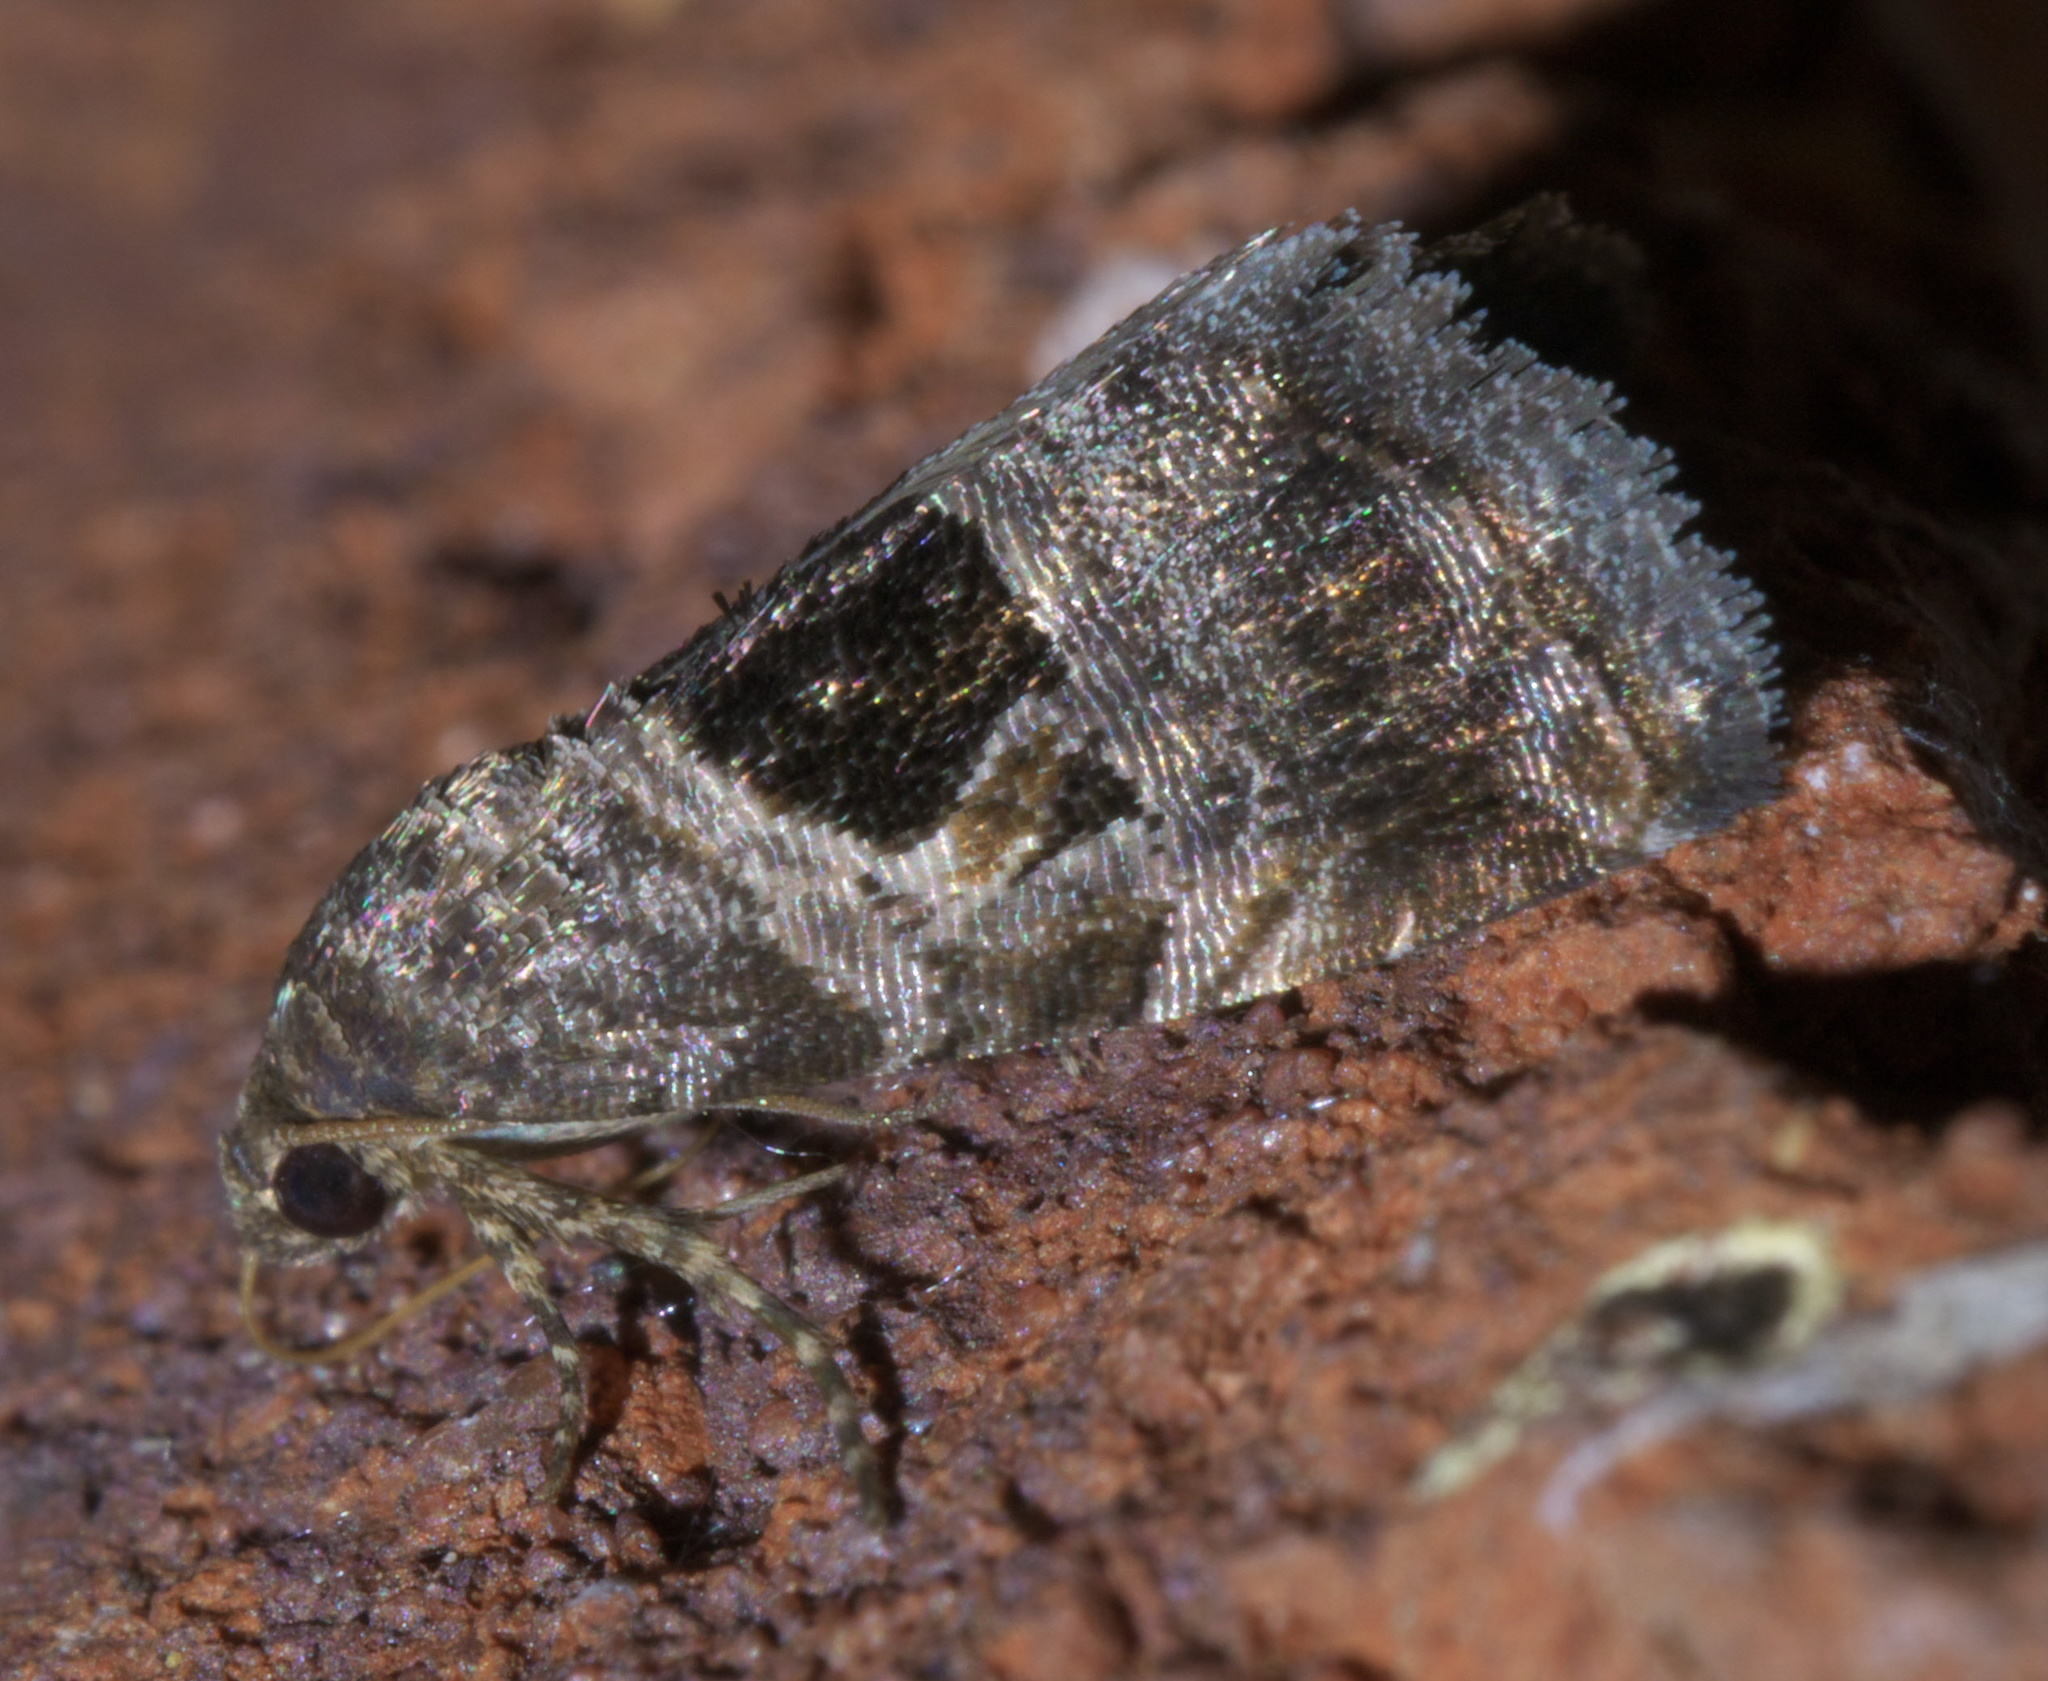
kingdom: Animalia
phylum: Arthropoda
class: Insecta
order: Lepidoptera
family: Noctuidae
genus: Tripudia
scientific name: Tripudia rectangula
